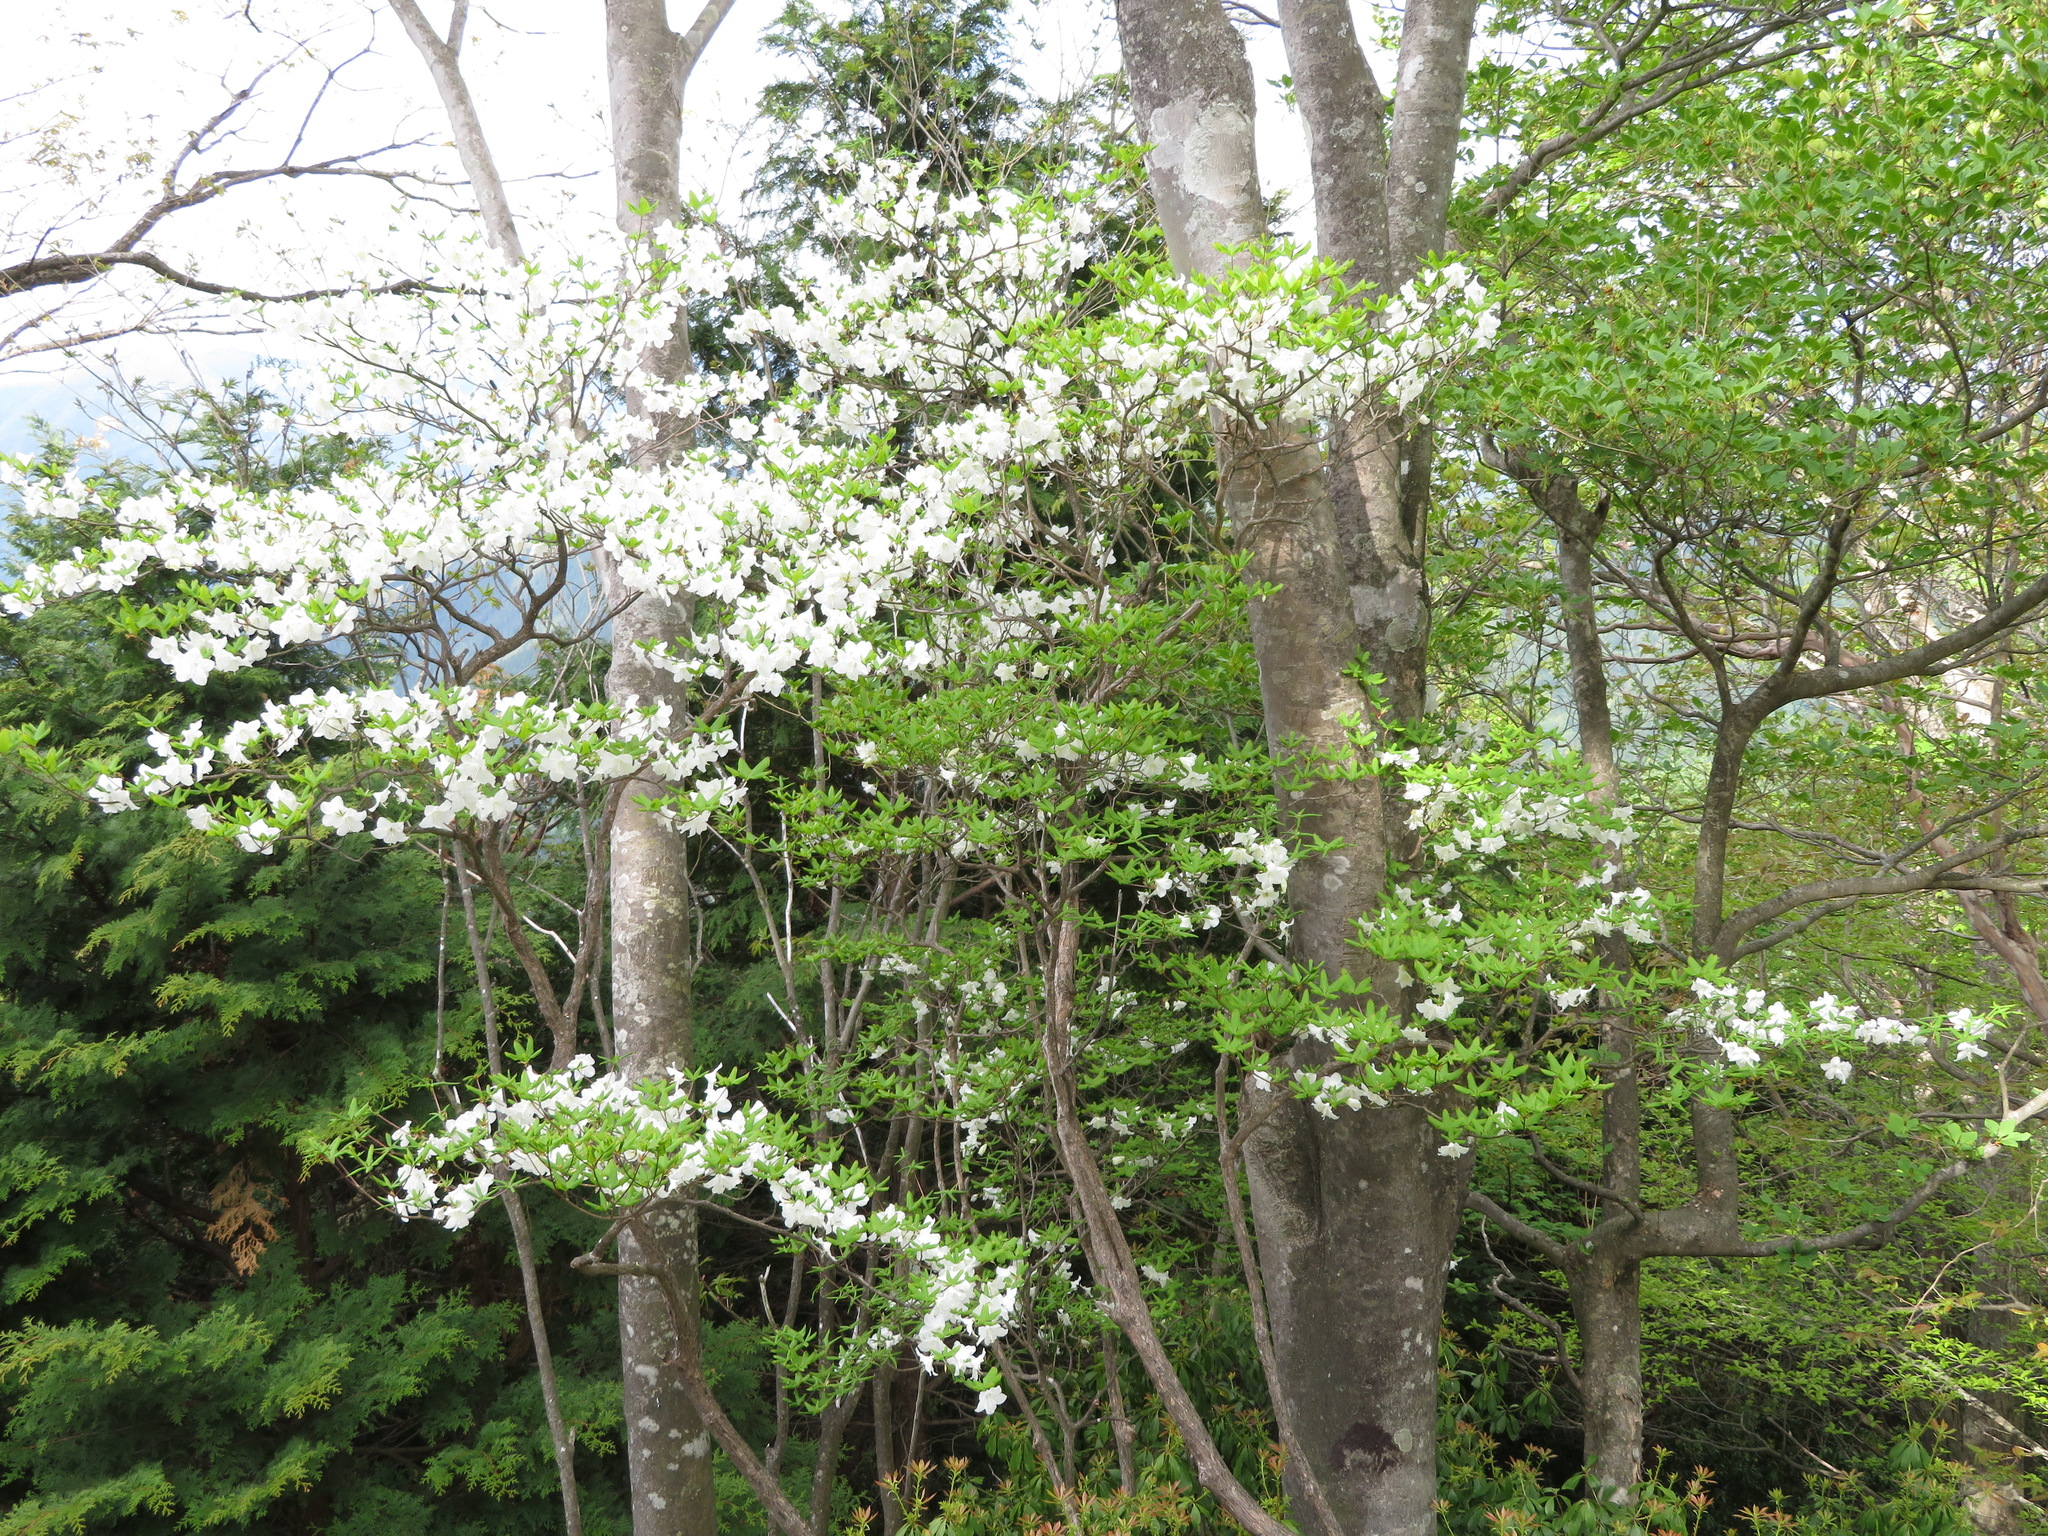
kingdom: Plantae
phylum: Tracheophyta
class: Magnoliopsida
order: Ericales
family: Ericaceae
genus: Rhododendron
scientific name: Rhododendron quinquefolium
